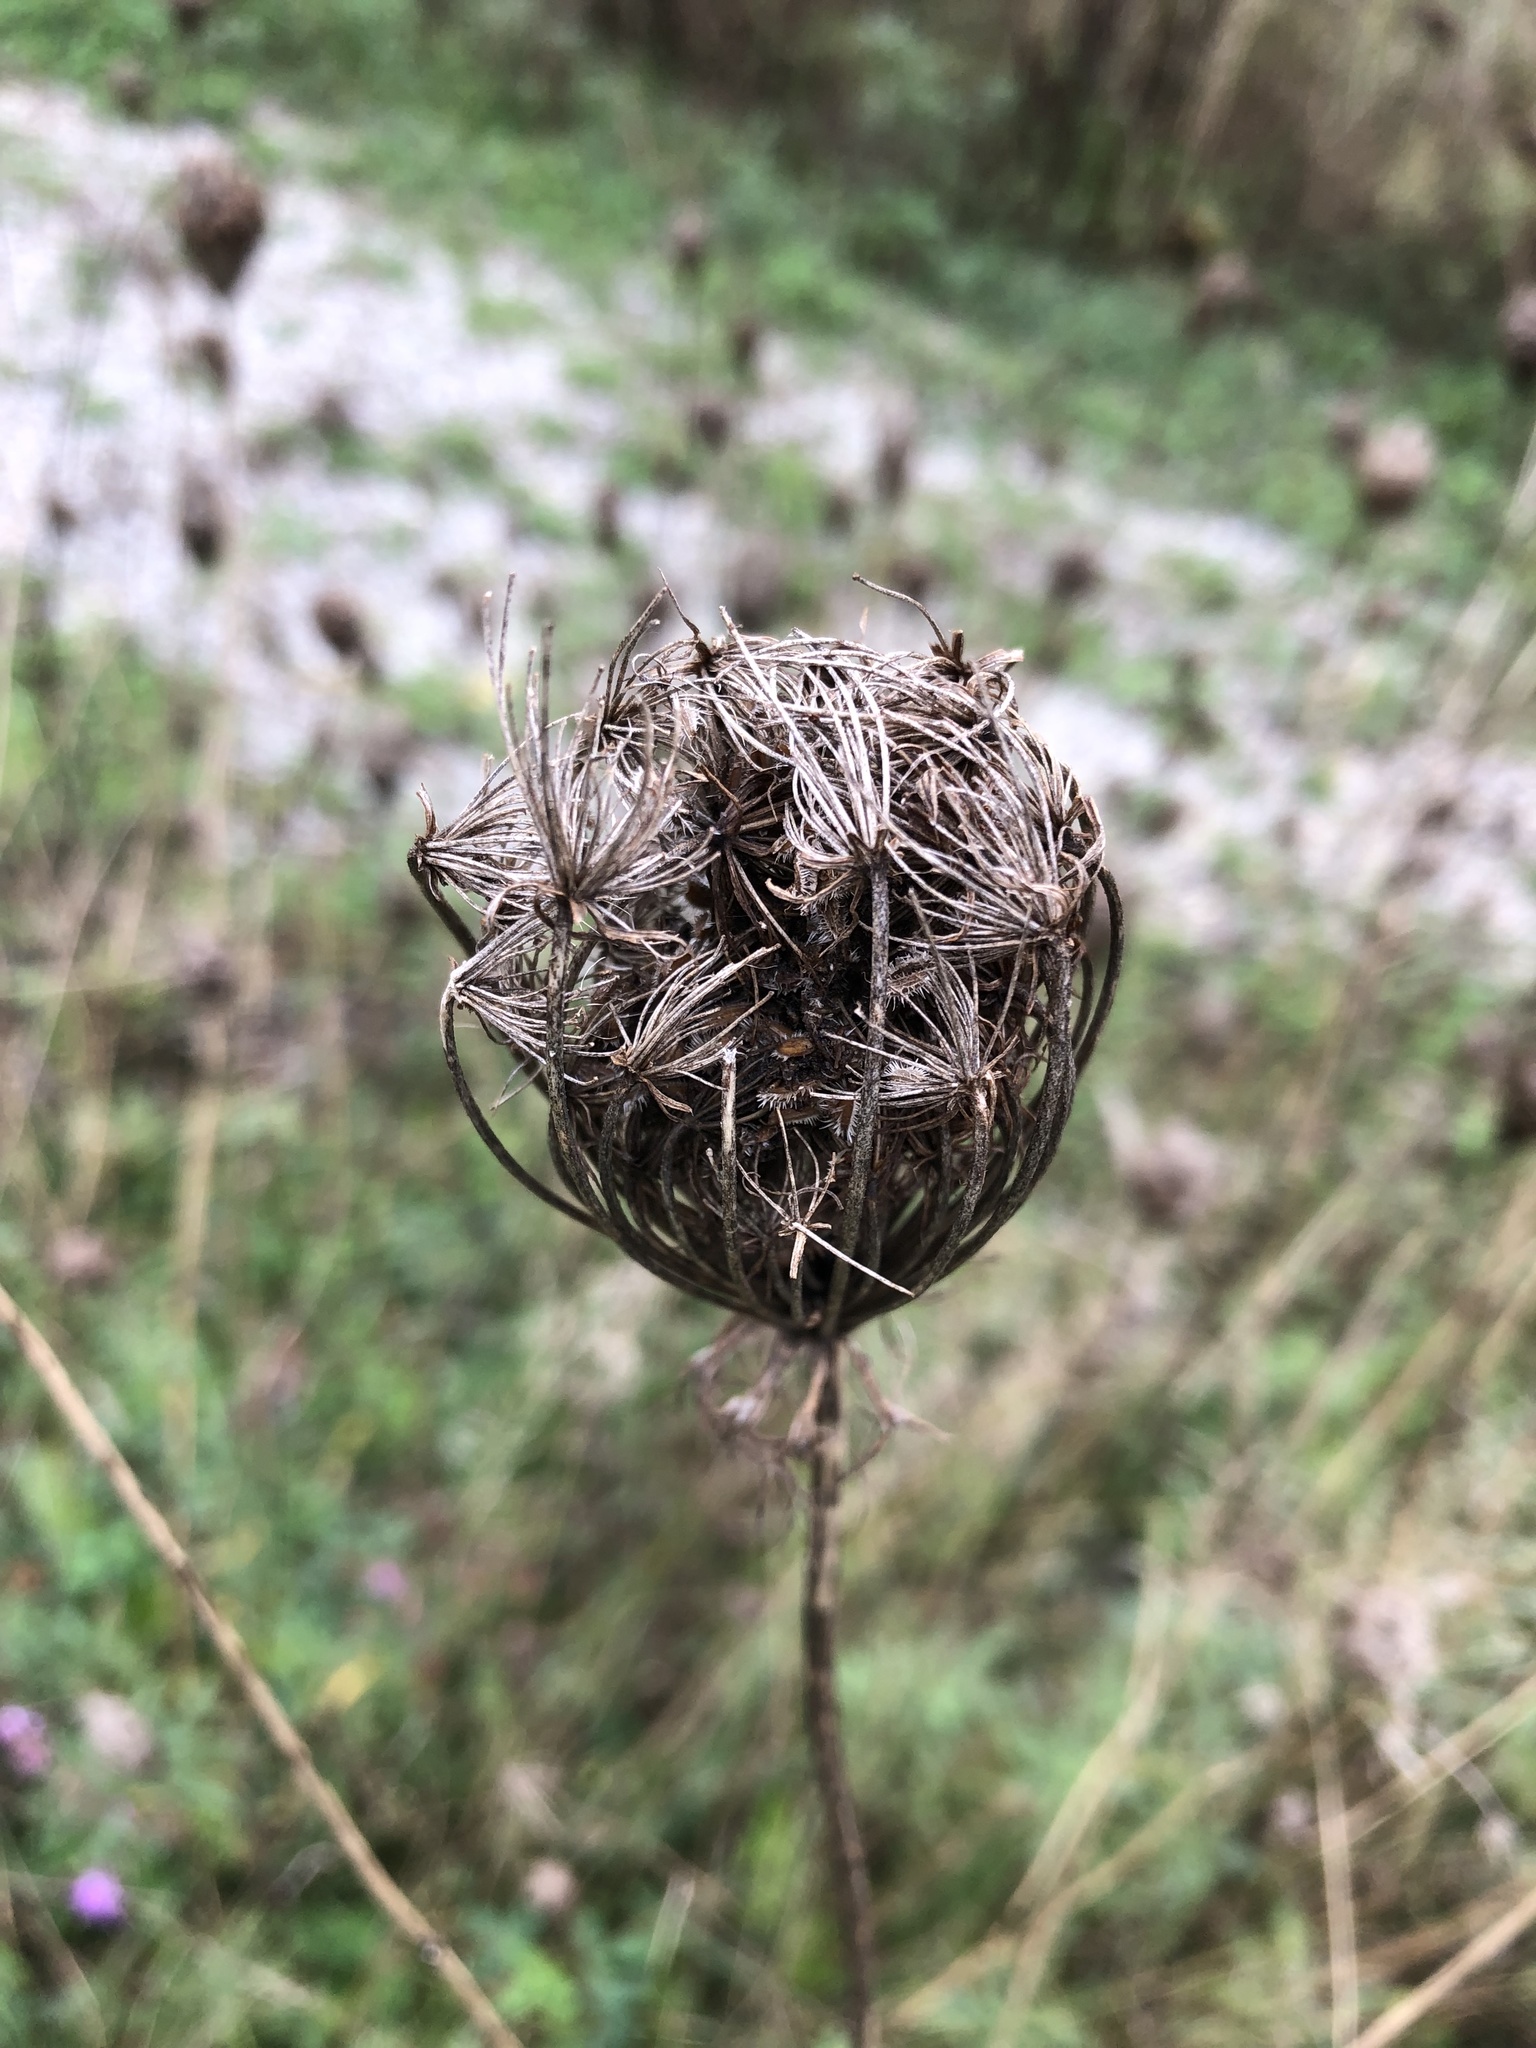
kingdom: Plantae
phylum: Tracheophyta
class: Magnoliopsida
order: Apiales
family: Apiaceae
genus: Daucus
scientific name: Daucus carota
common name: Wild carrot
